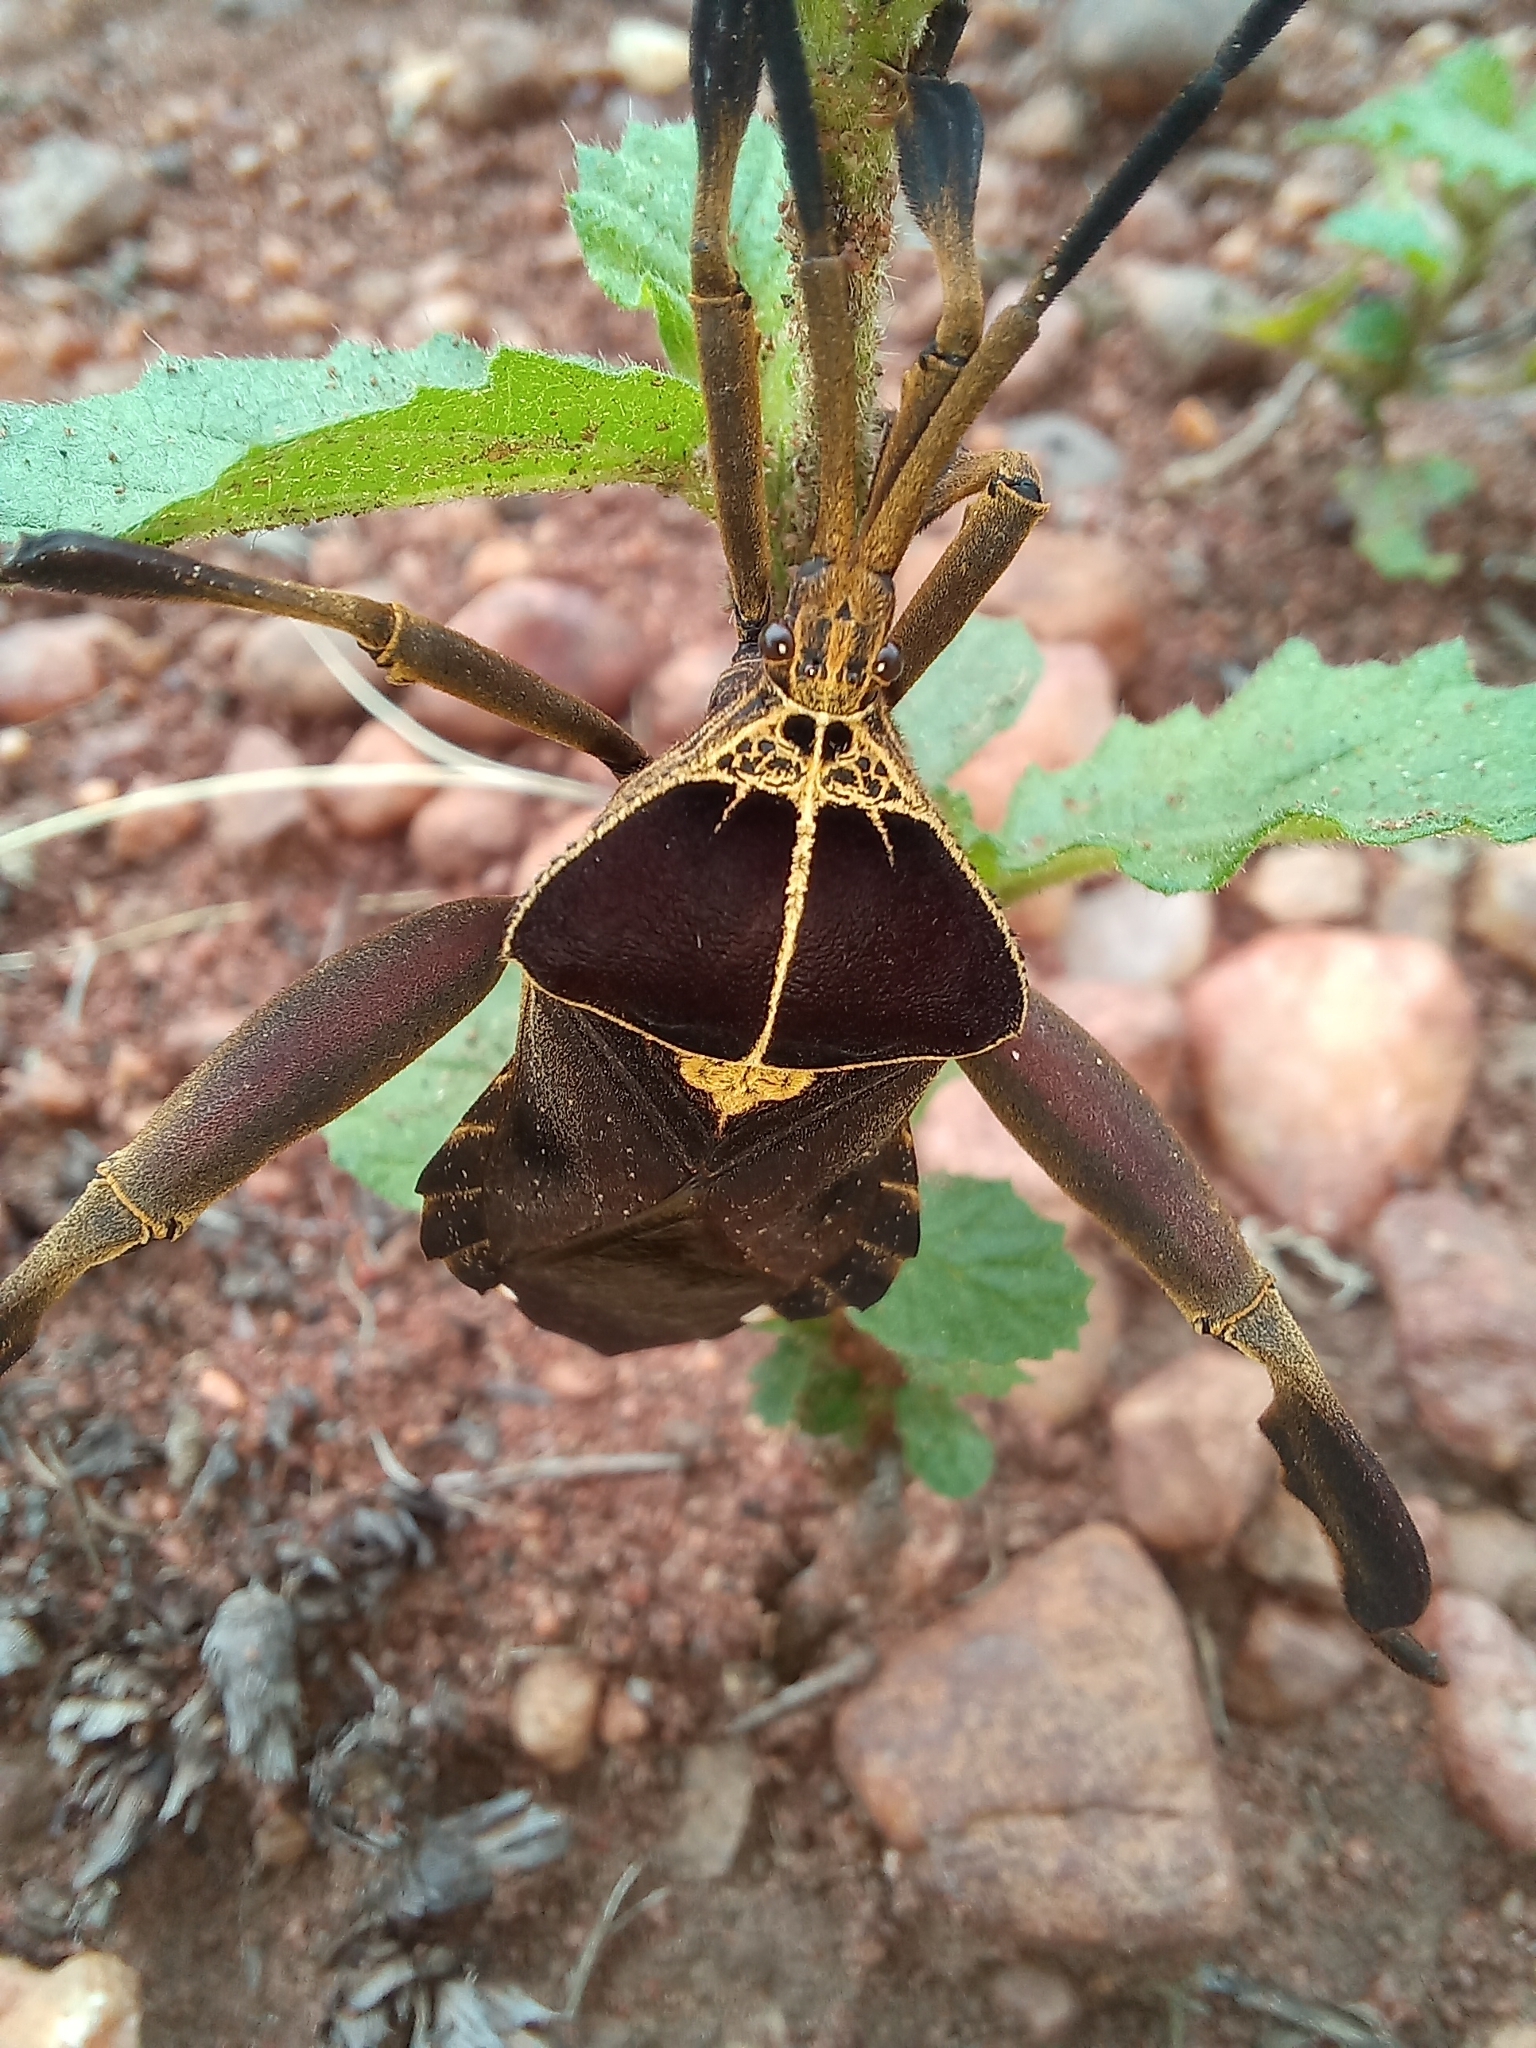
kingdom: Animalia
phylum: Arthropoda
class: Insecta
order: Hemiptera
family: Coreidae
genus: Petascelis
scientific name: Petascelis remipes
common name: Giant twig wilter
